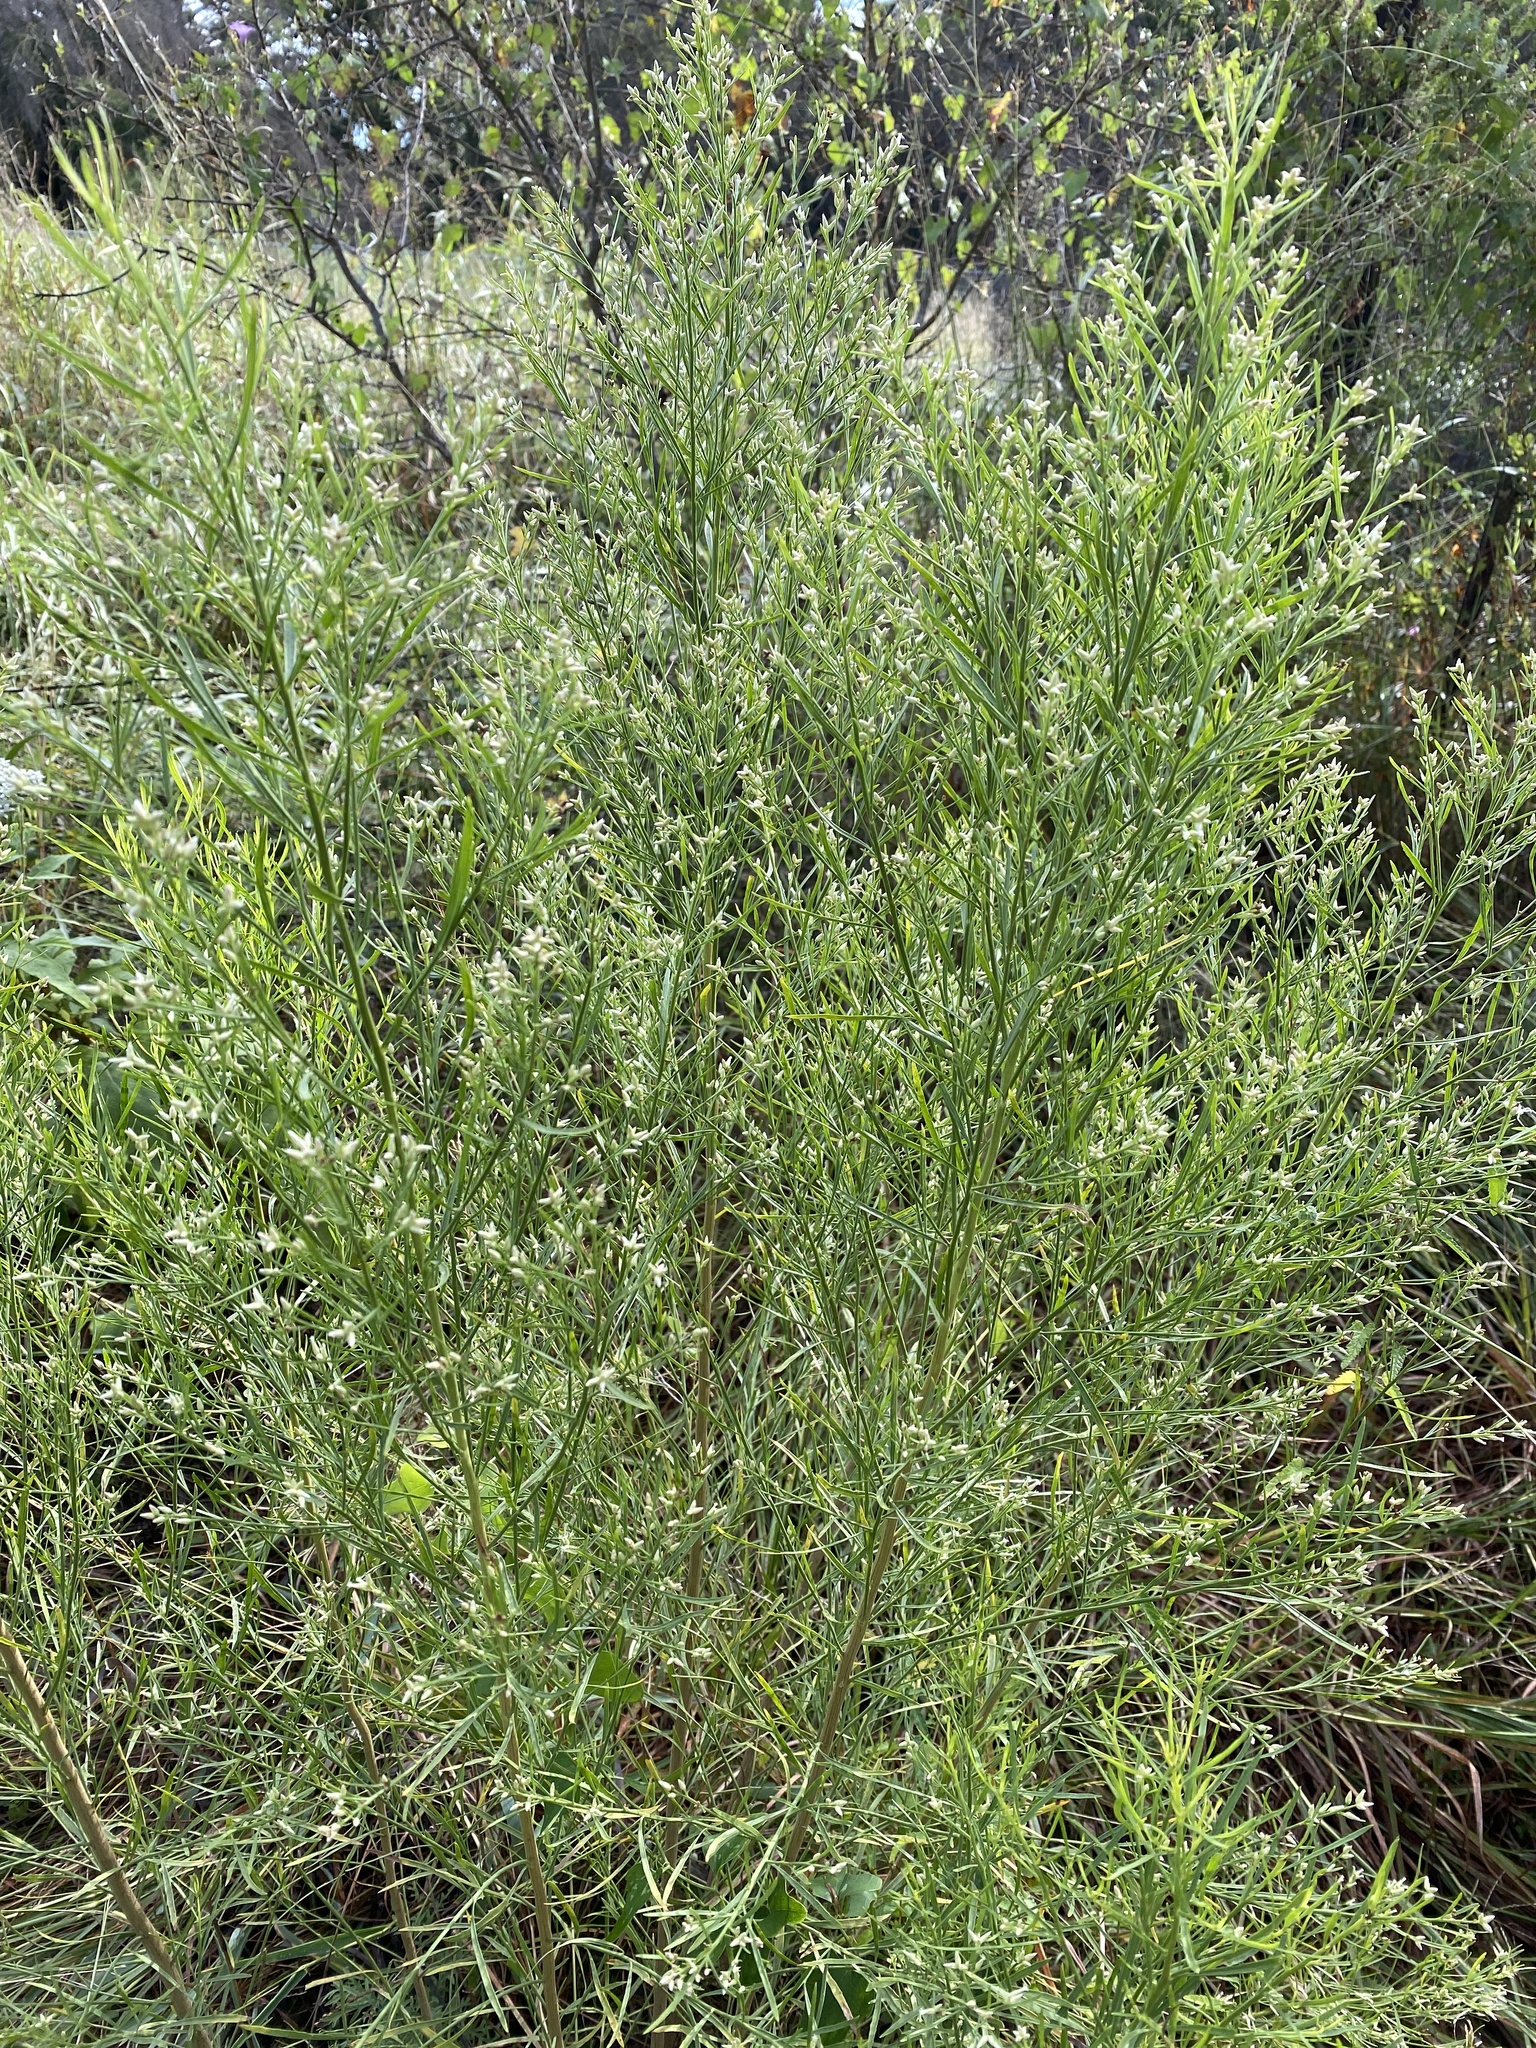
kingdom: Plantae
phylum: Tracheophyta
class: Magnoliopsida
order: Asterales
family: Asteraceae
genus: Baccharis
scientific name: Baccharis neglecta
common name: Roosevelt-weed
